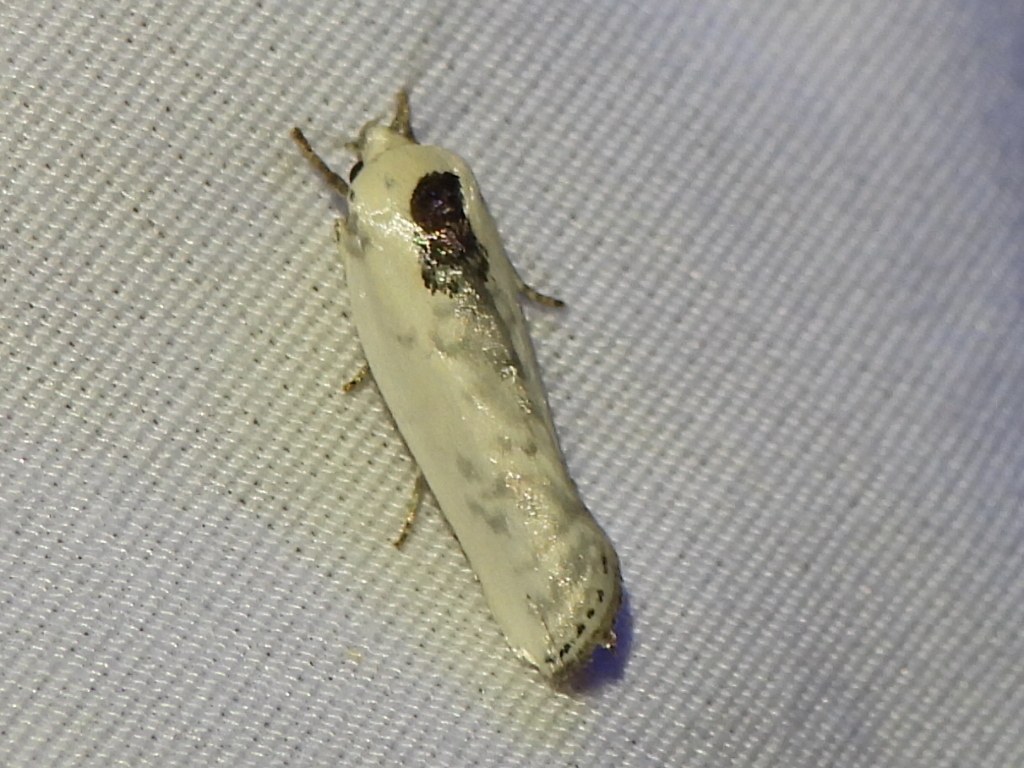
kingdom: Animalia
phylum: Arthropoda
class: Insecta
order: Lepidoptera
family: Depressariidae
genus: Antaeotricha
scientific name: Antaeotricha schlaegeri
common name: Schlaeger's fruitworm moth
